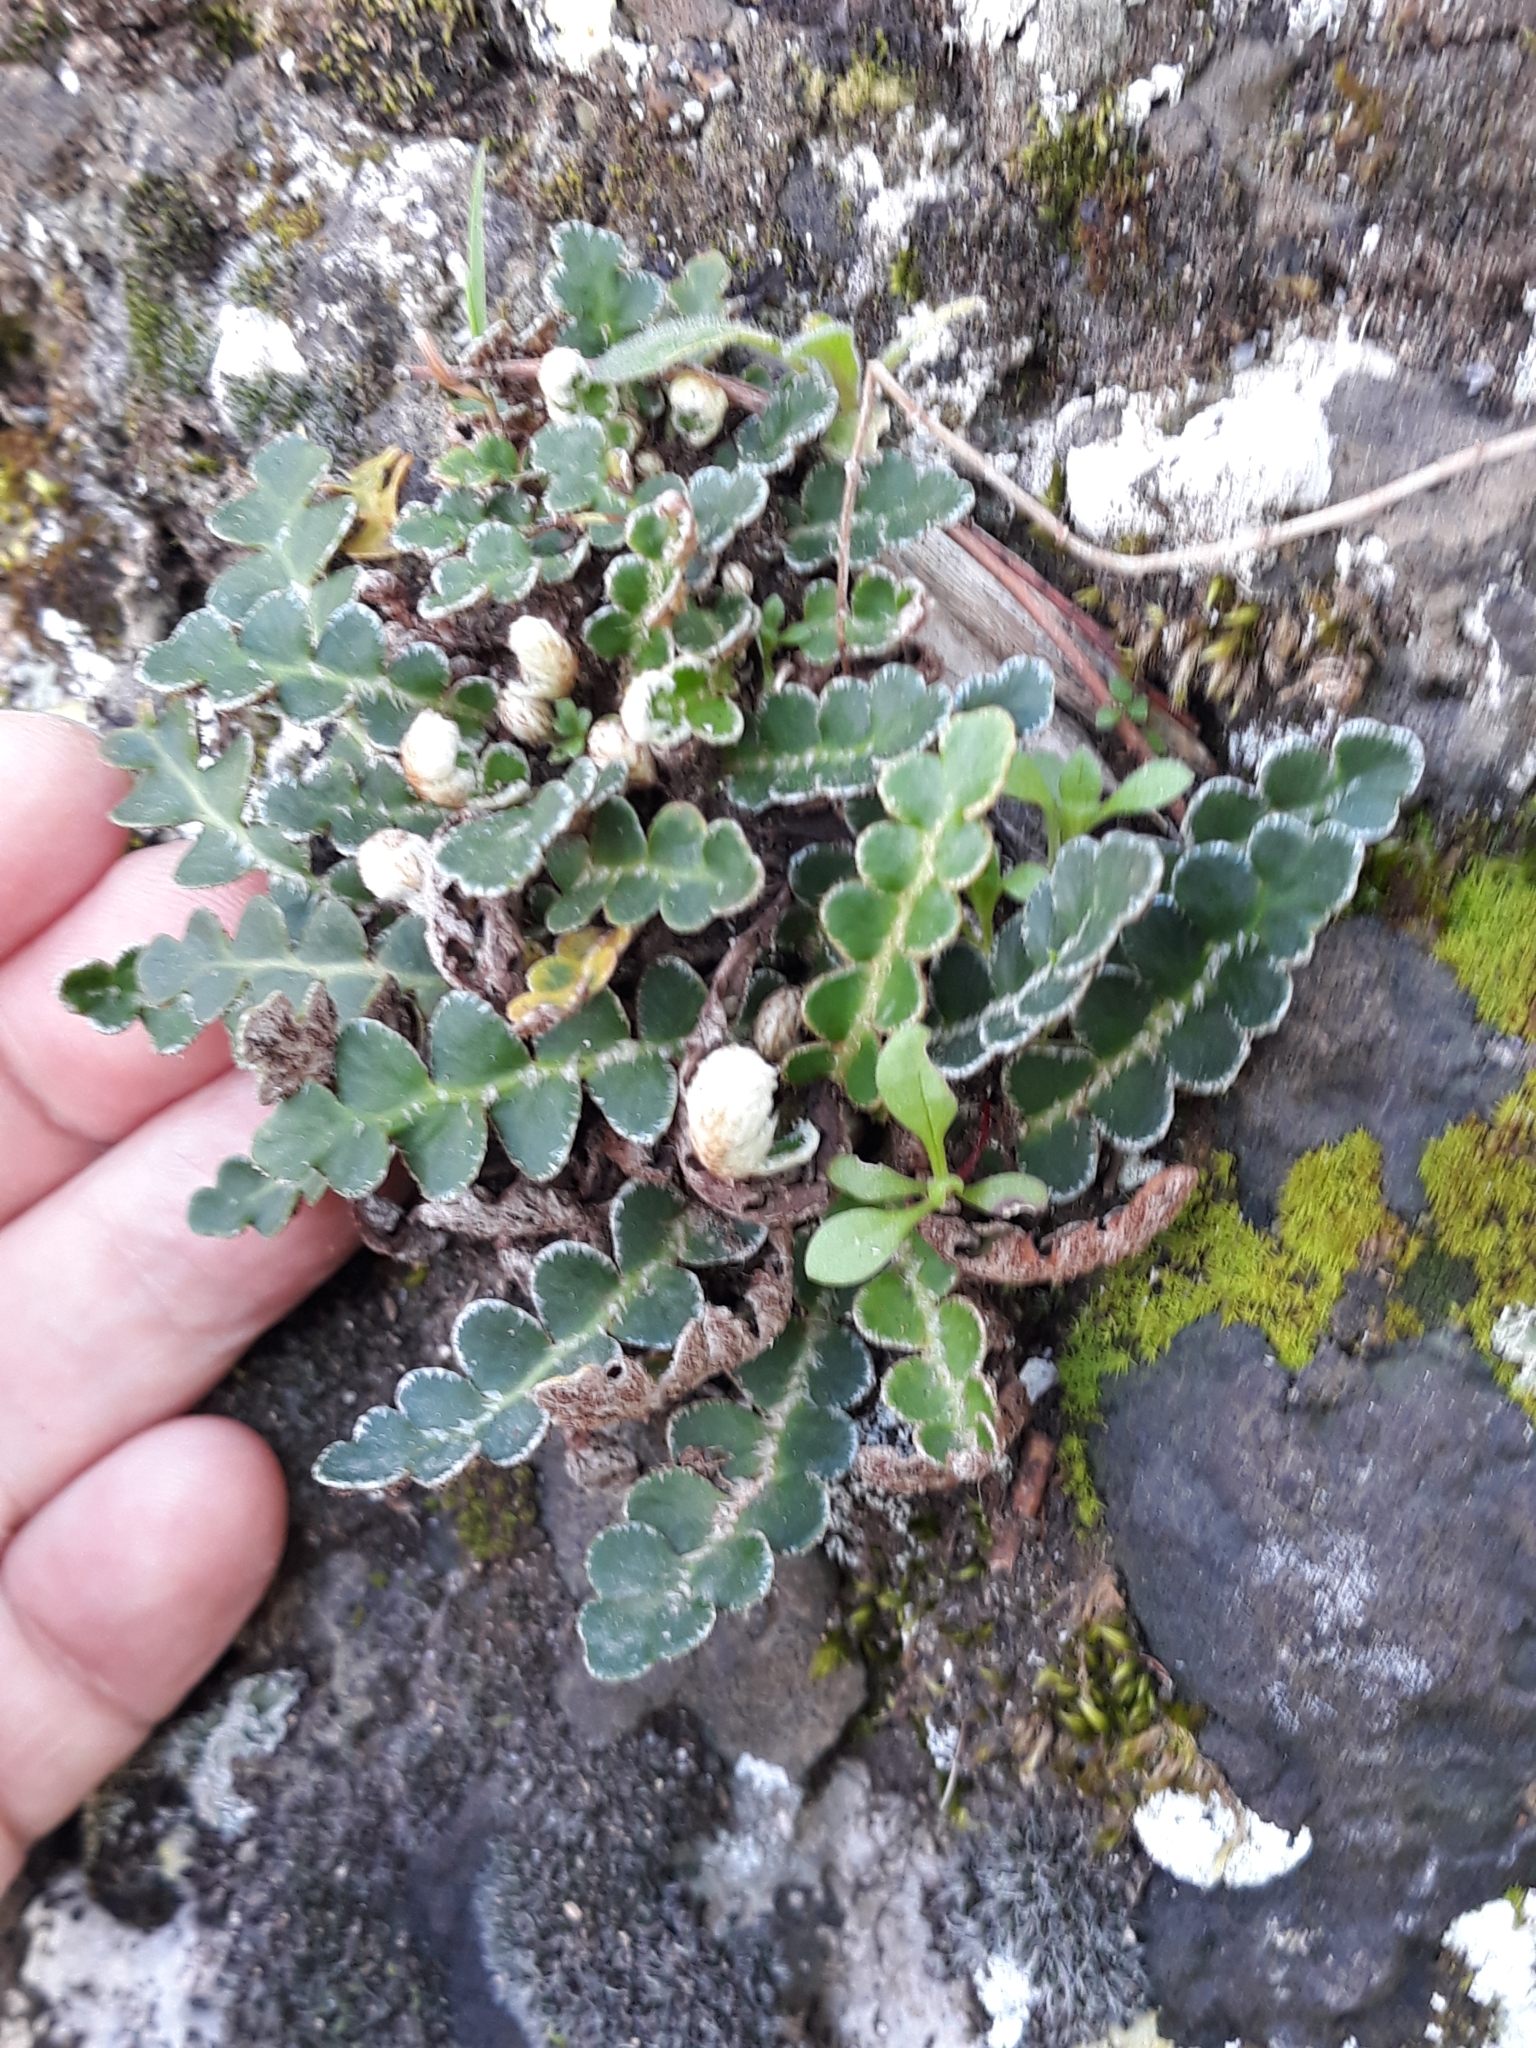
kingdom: Plantae
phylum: Tracheophyta
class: Polypodiopsida
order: Polypodiales
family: Aspleniaceae
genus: Asplenium
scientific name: Asplenium ceterach
